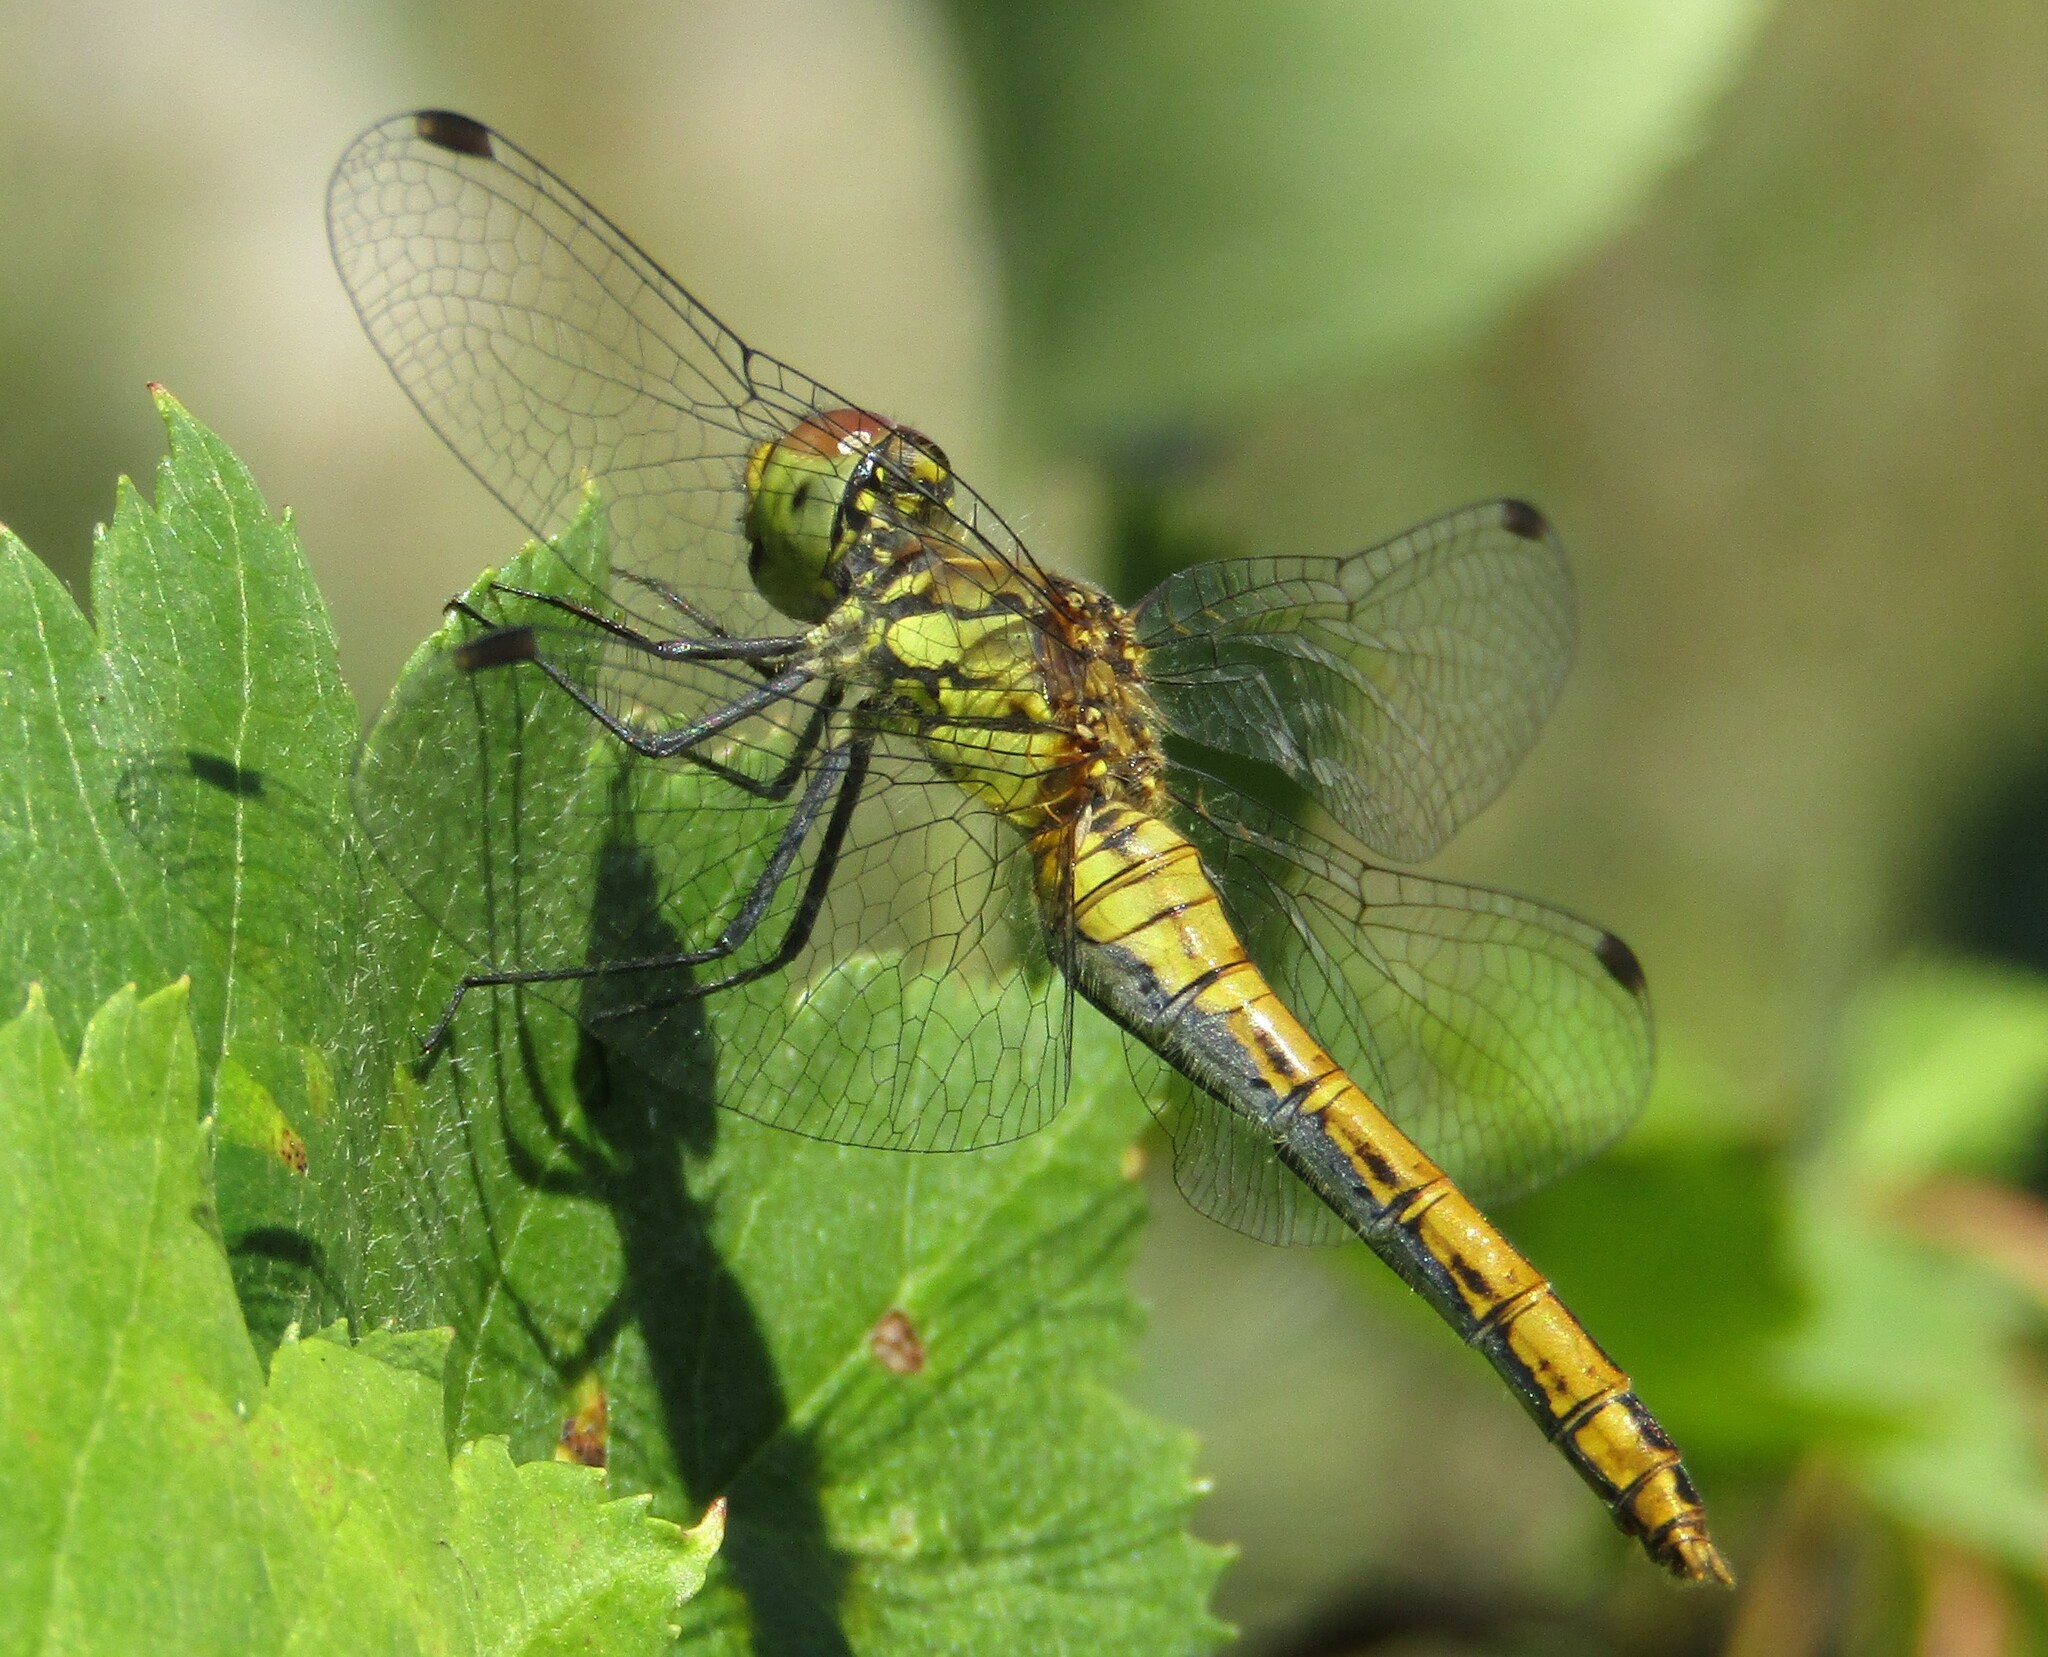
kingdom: Animalia
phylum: Arthropoda
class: Insecta
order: Odonata
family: Libellulidae
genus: Sympetrum
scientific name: Sympetrum sanguineum
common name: Ruddy darter
